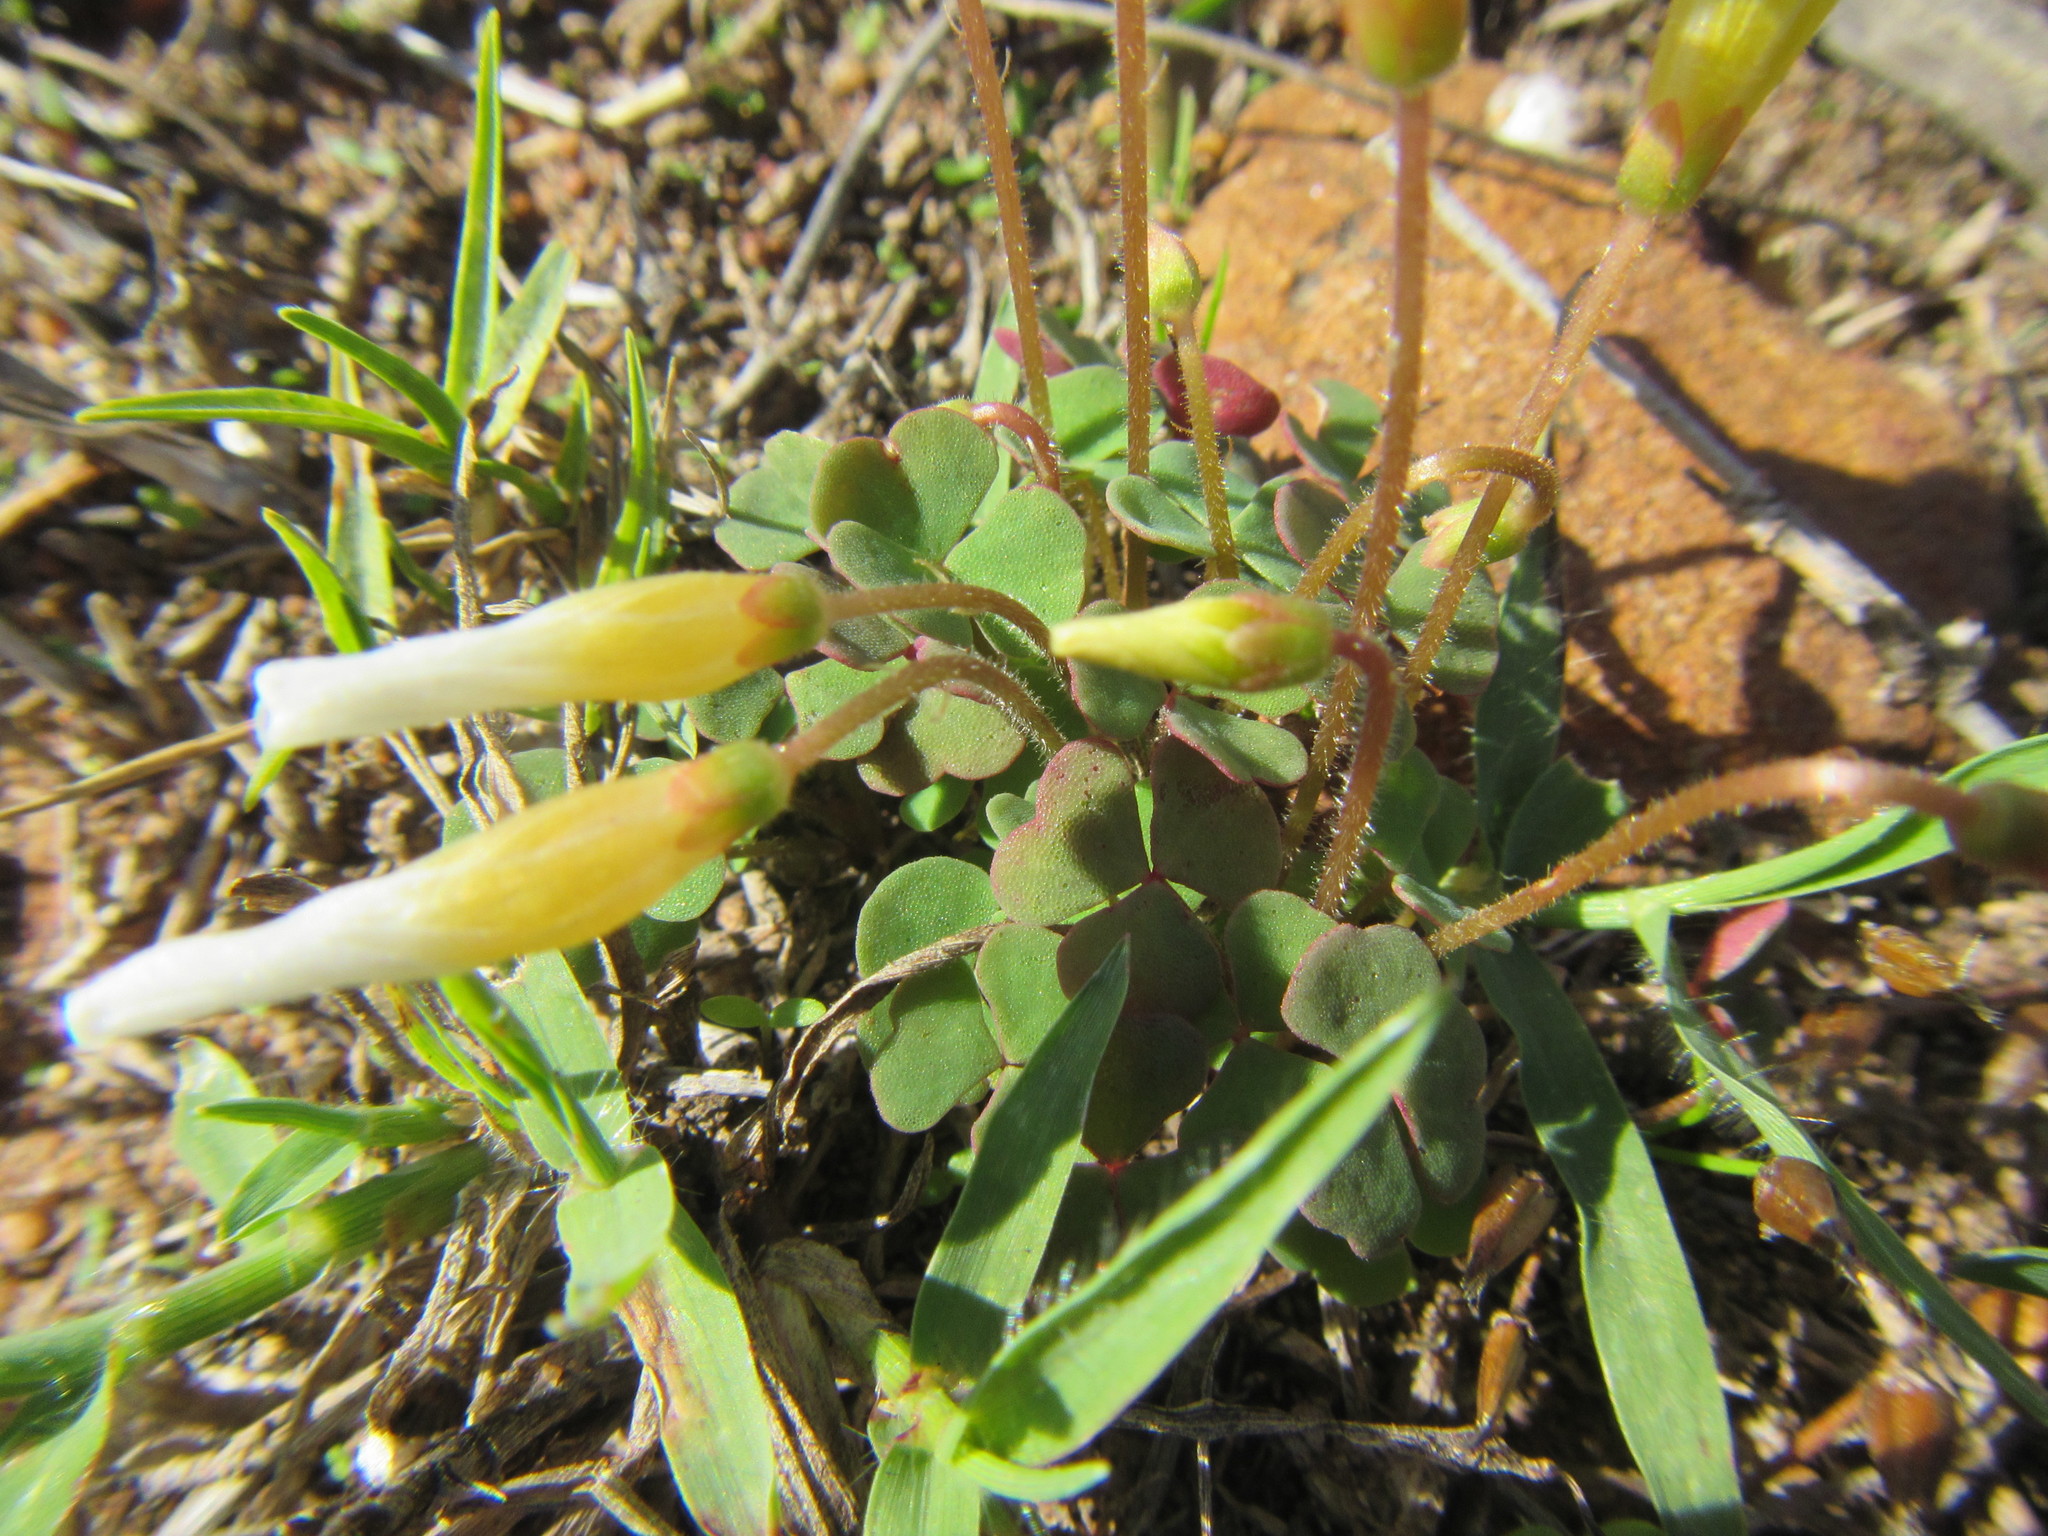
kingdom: Plantae
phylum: Tracheophyta
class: Magnoliopsida
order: Oxalidales
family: Oxalidaceae
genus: Oxalis
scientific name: Oxalis punctata
